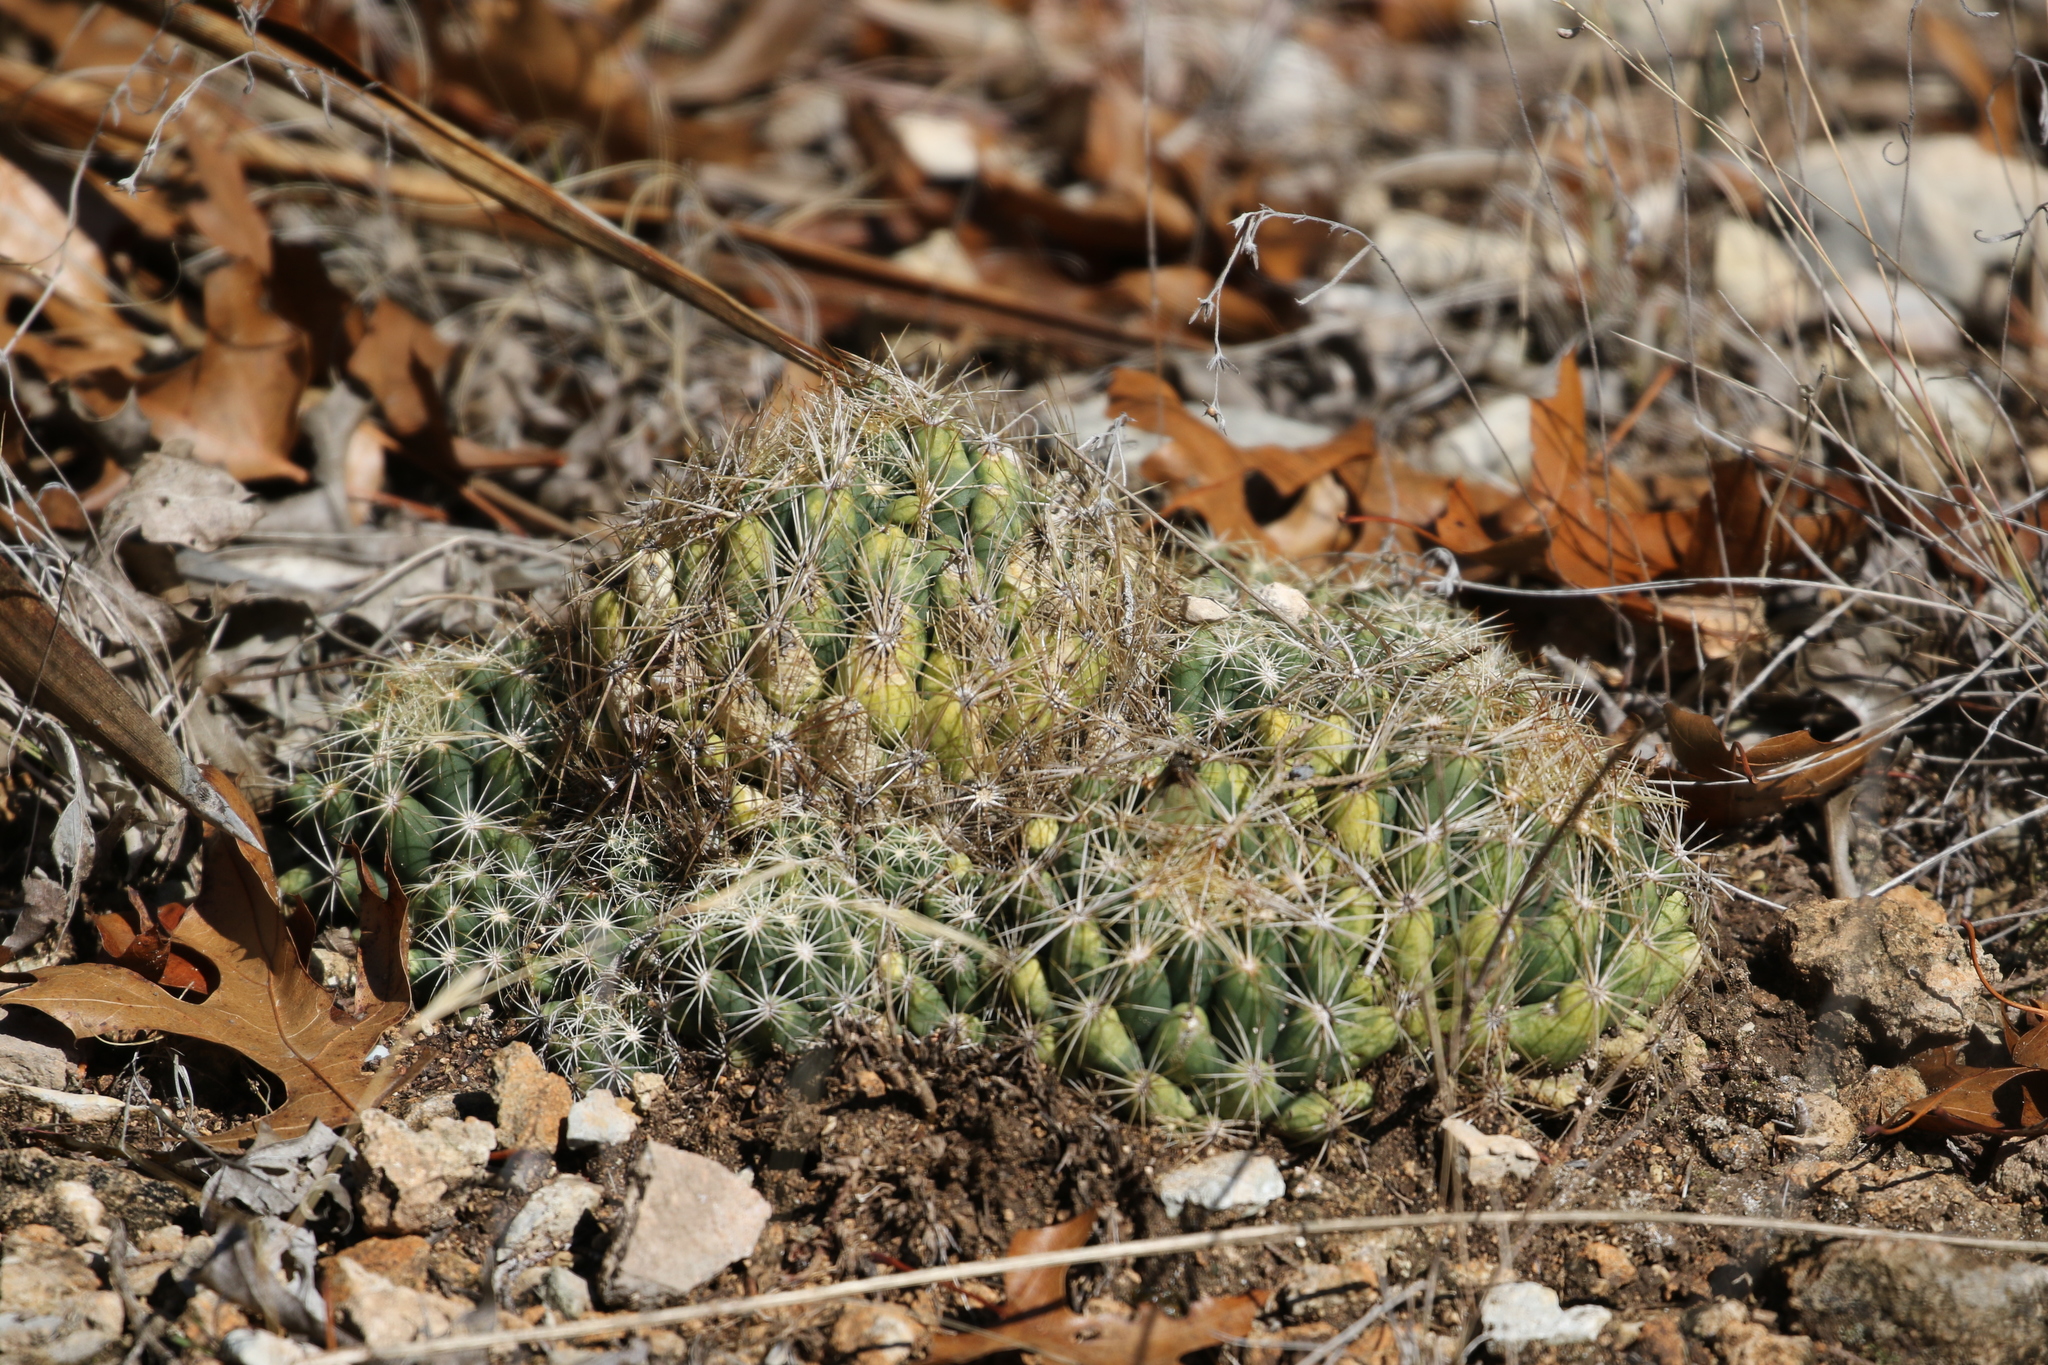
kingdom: Plantae
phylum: Tracheophyta
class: Magnoliopsida
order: Caryophyllales
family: Cactaceae
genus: Coryphantha
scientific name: Coryphantha sulcata
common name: Finger cactus
